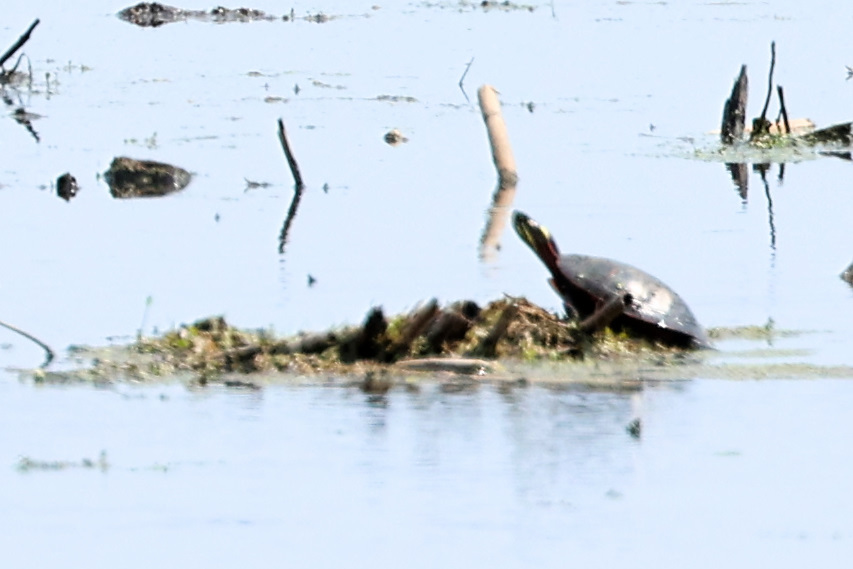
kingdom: Animalia
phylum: Chordata
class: Testudines
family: Emydidae
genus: Chrysemys
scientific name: Chrysemys picta
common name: Painted turtle
